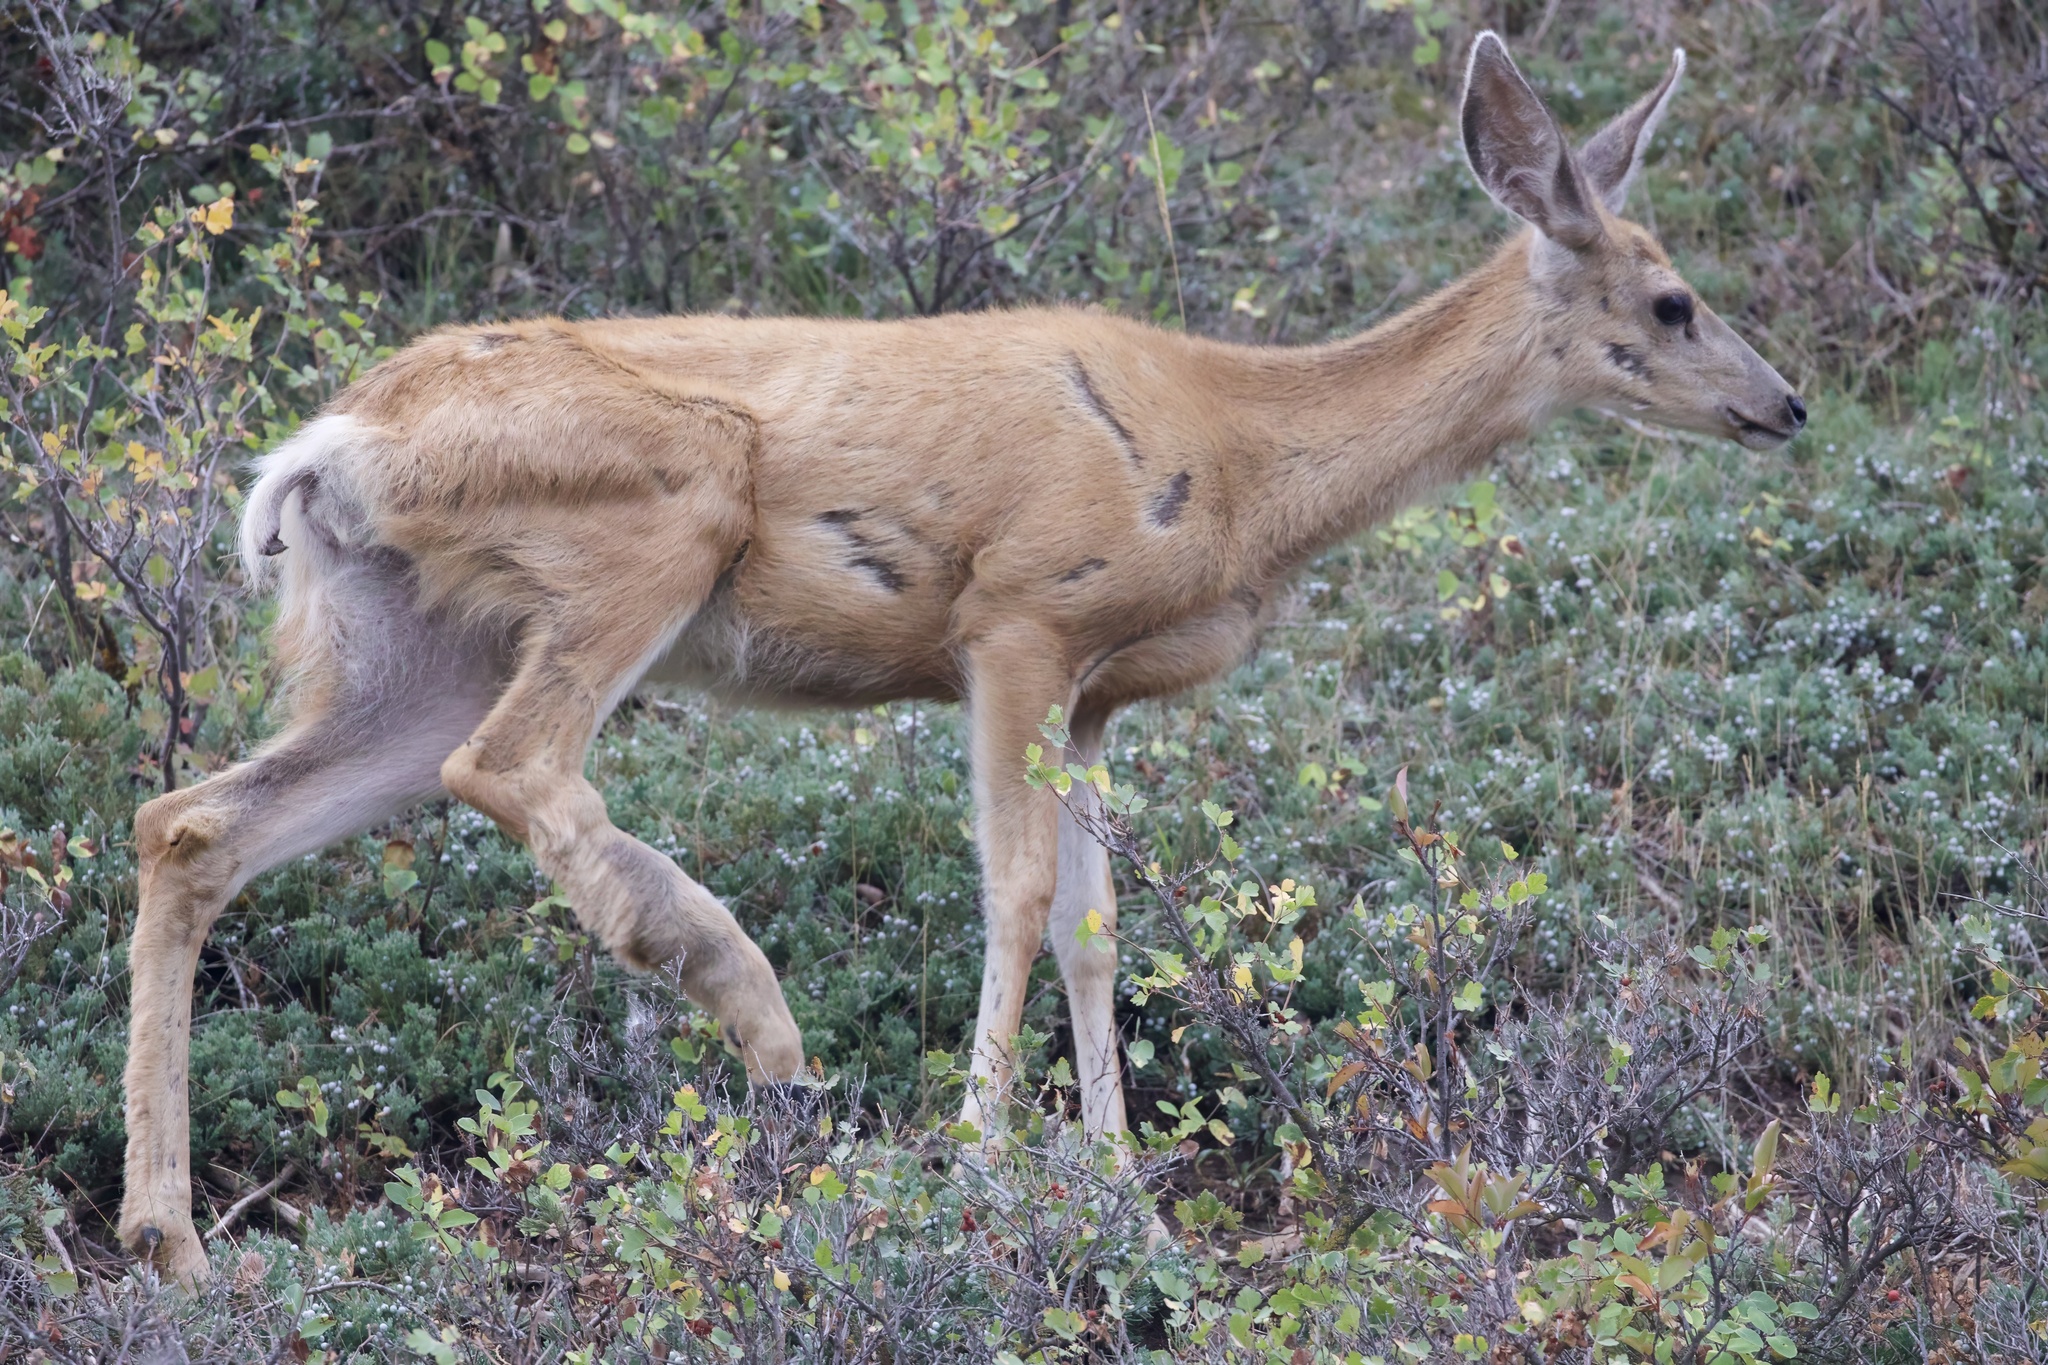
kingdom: Animalia
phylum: Chordata
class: Mammalia
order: Artiodactyla
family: Cervidae
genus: Odocoileus
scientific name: Odocoileus hemionus
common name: Mule deer
